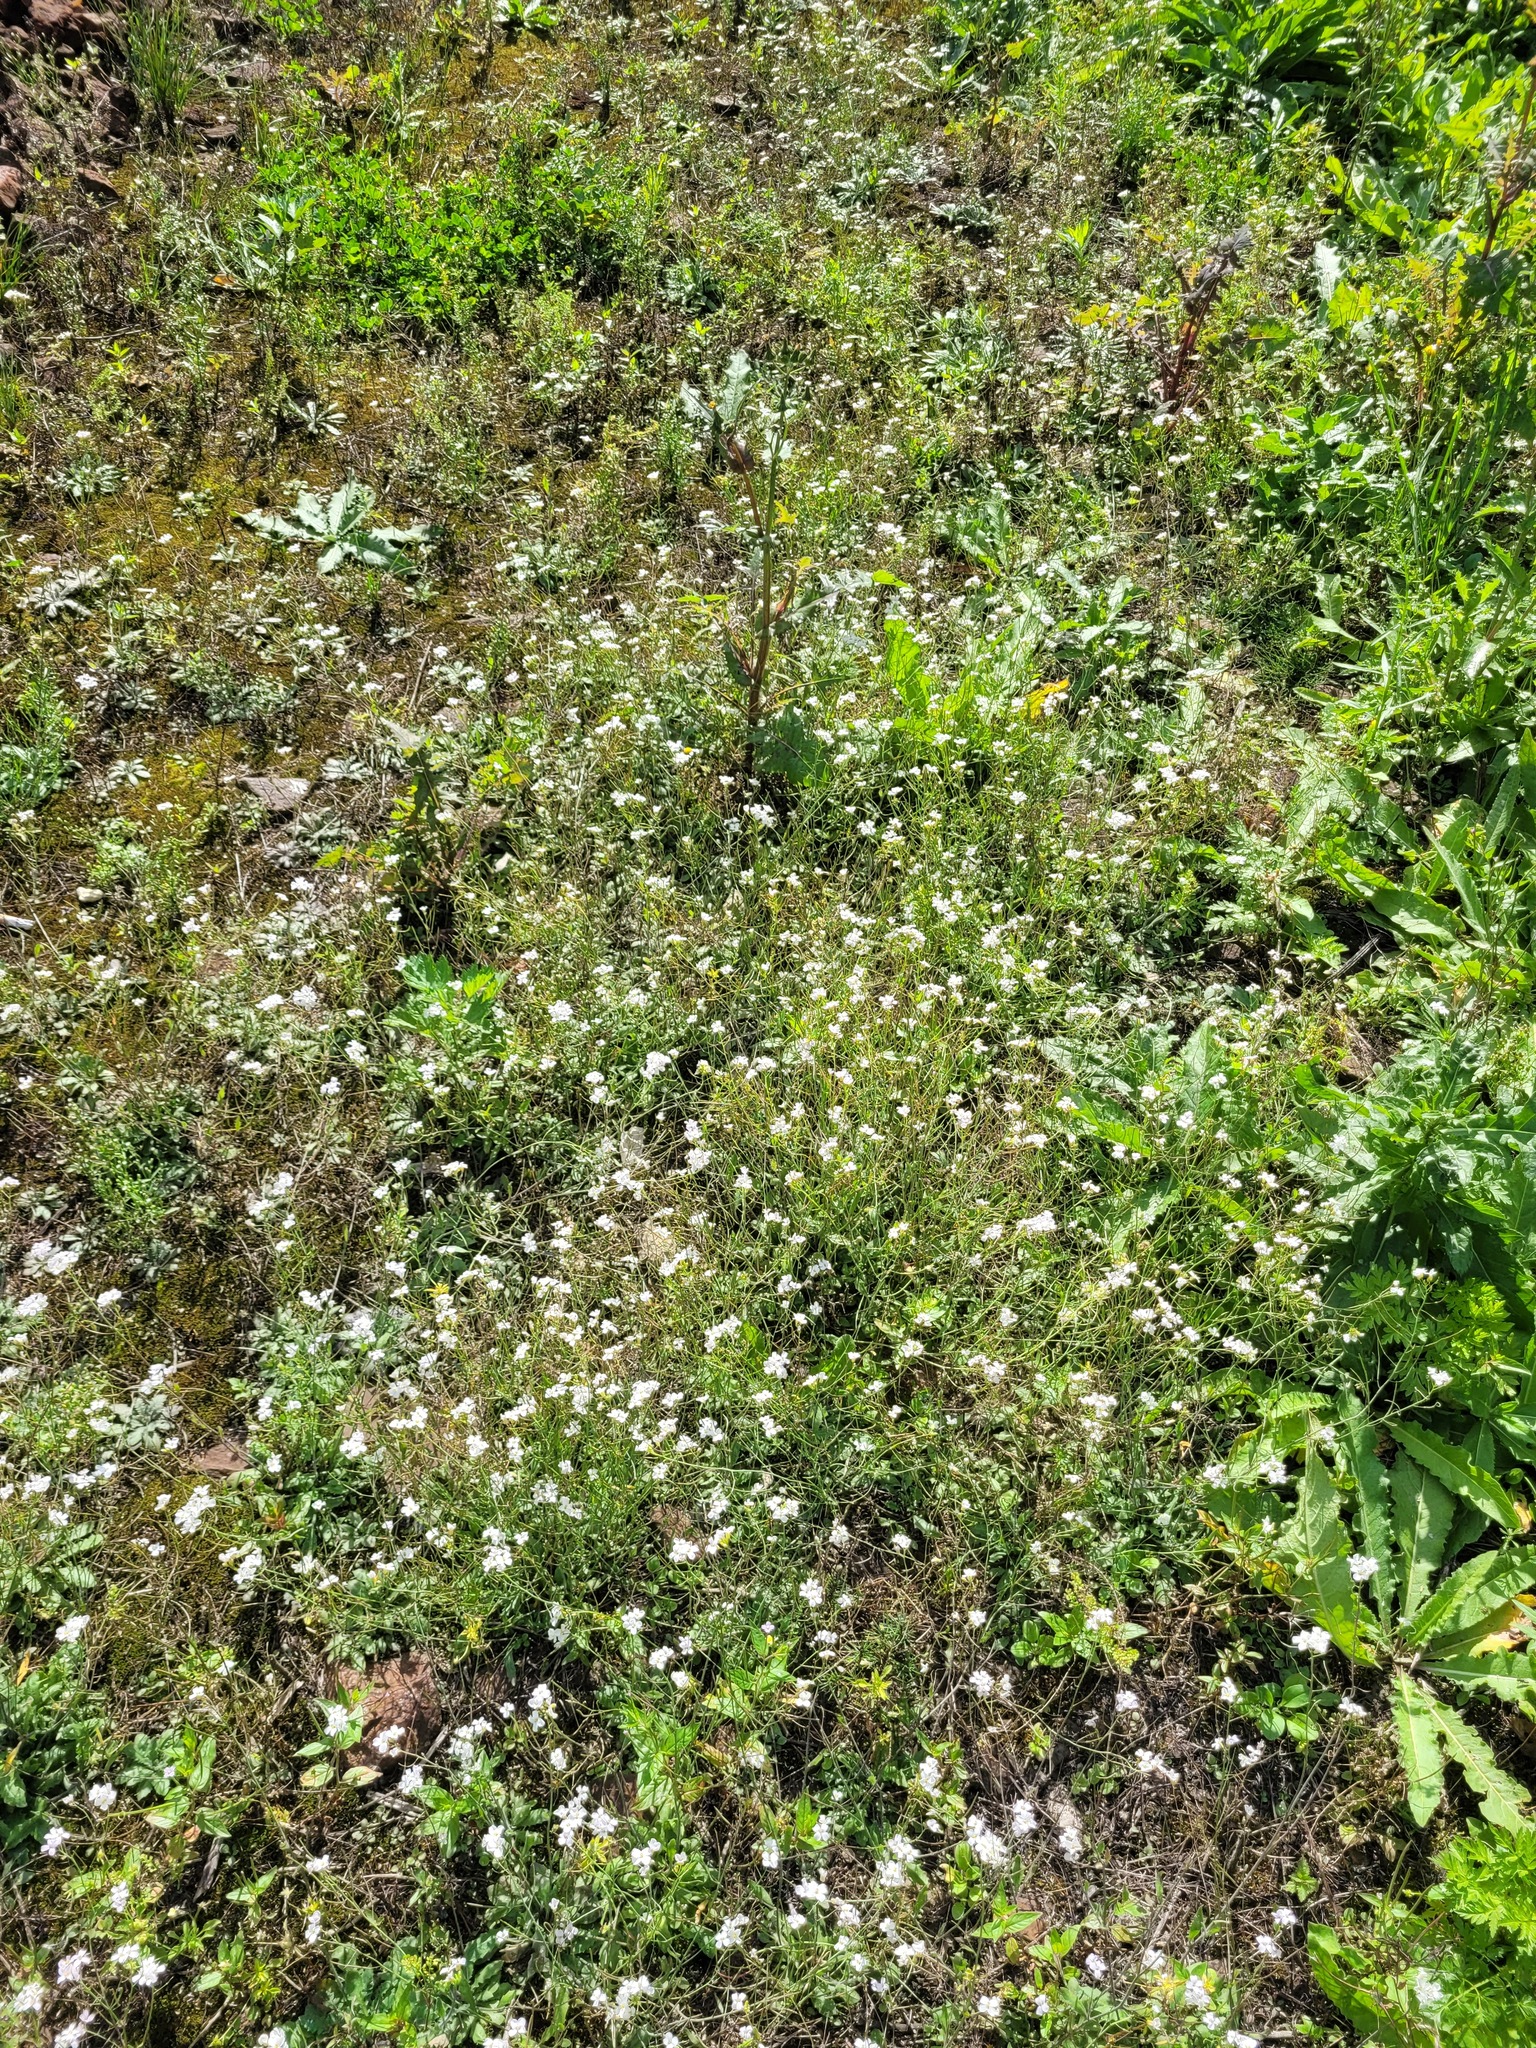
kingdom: Plantae
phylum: Tracheophyta
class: Magnoliopsida
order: Brassicales
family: Brassicaceae
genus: Arabidopsis
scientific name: Arabidopsis arenosa
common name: Sand rock-cress
